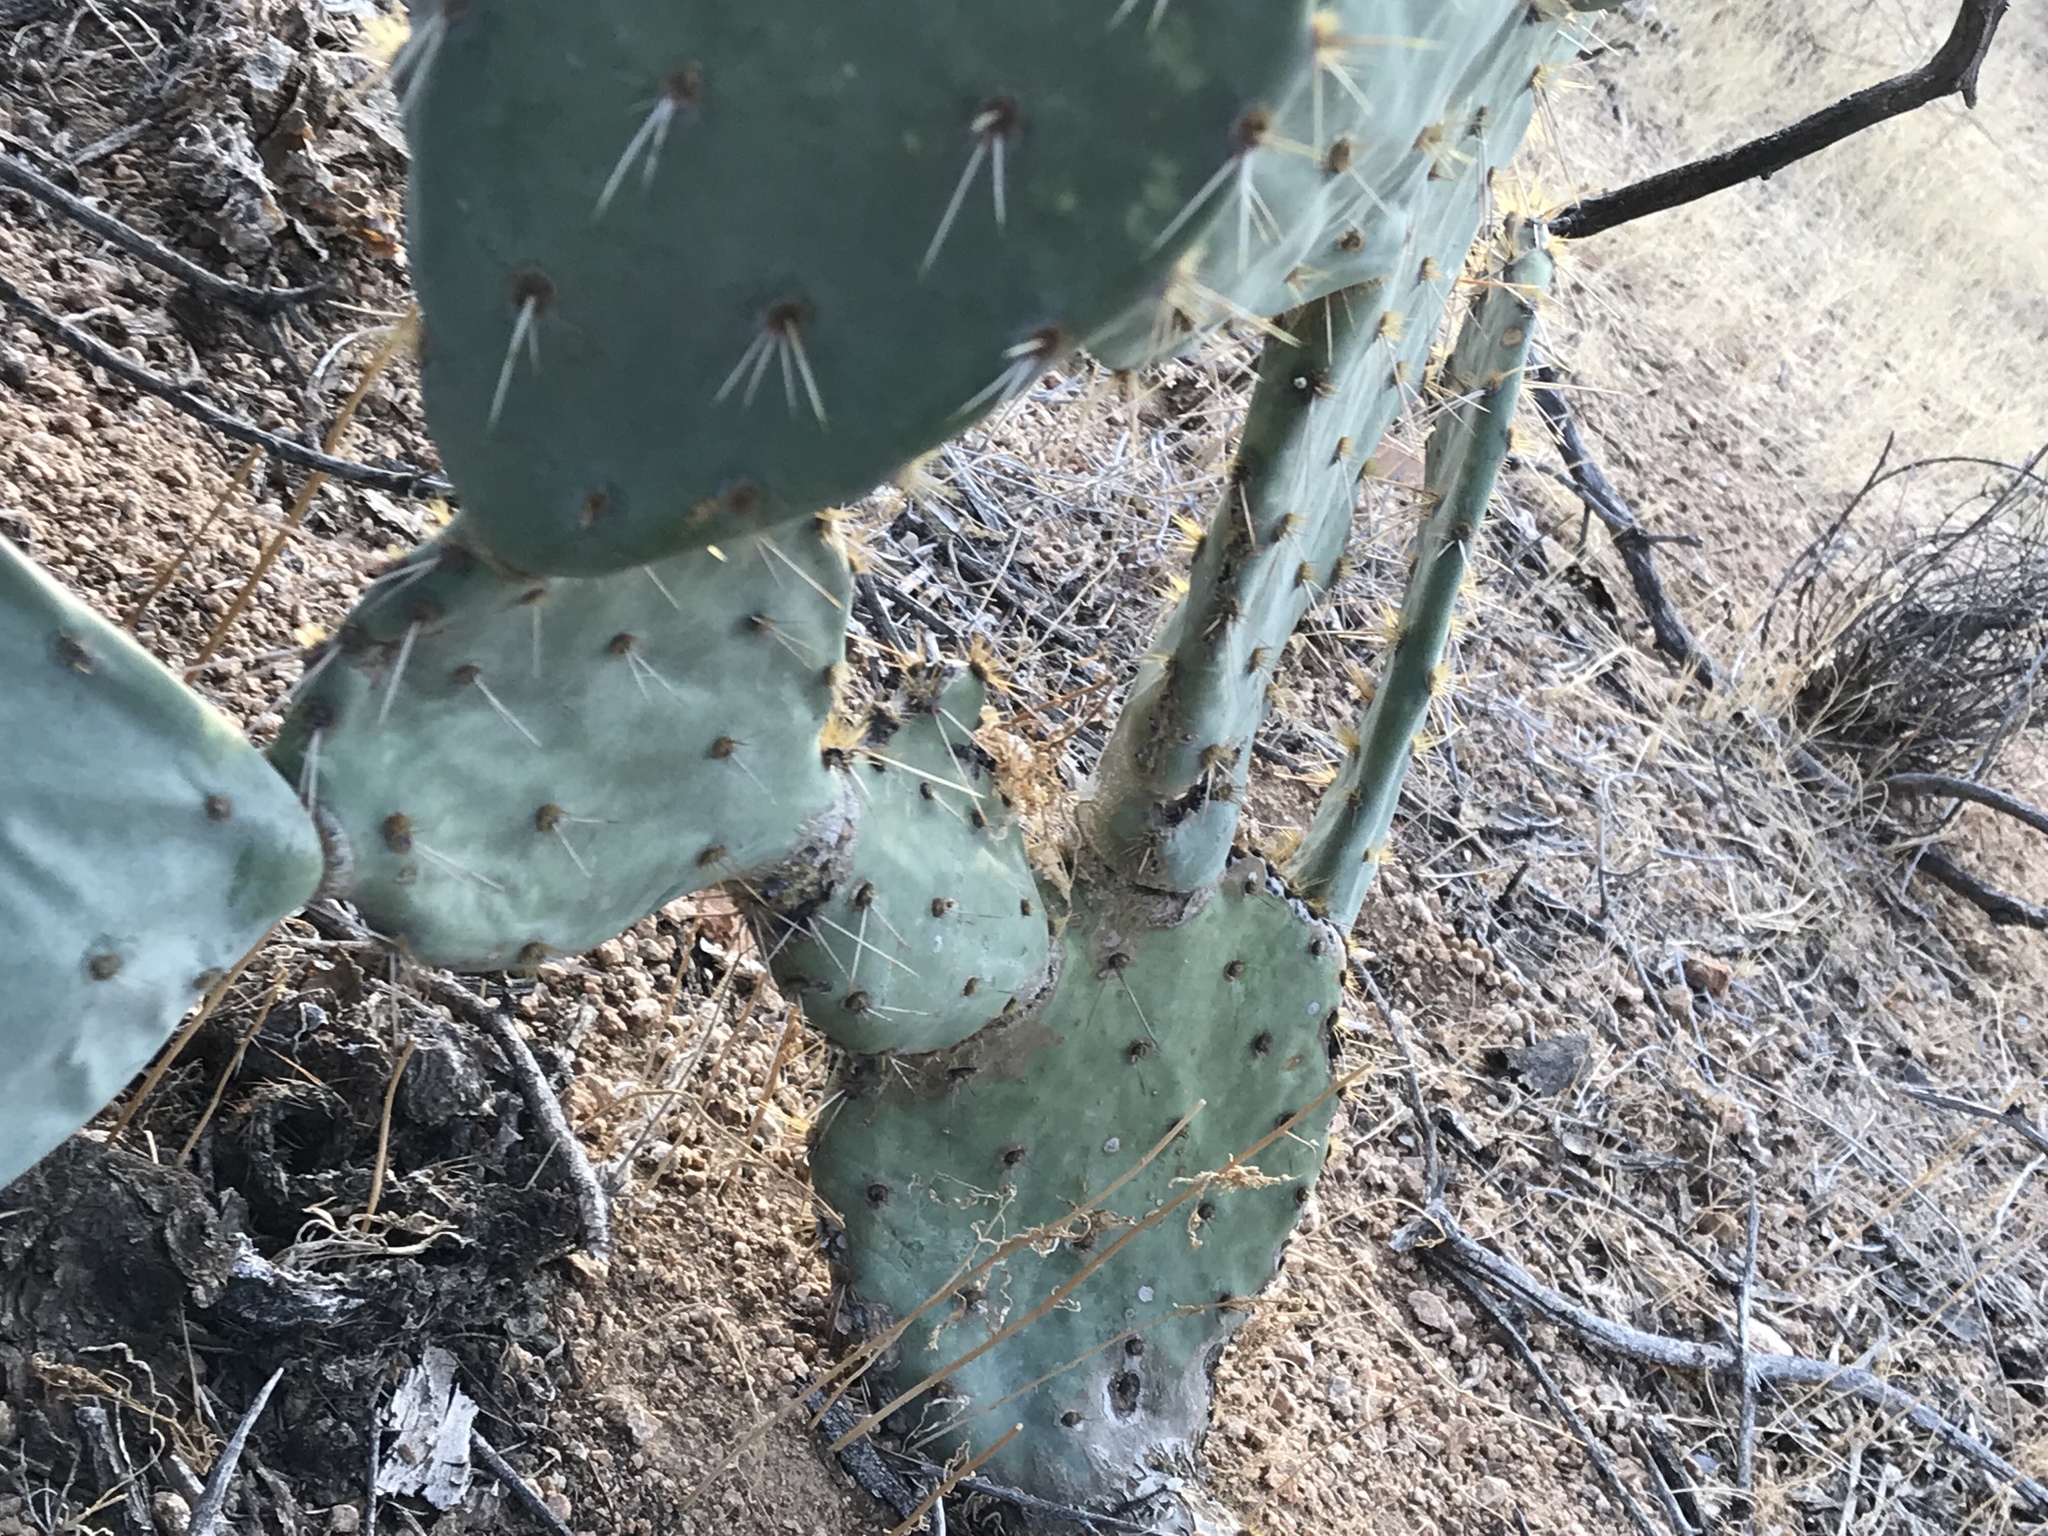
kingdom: Plantae
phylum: Tracheophyta
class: Magnoliopsida
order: Caryophyllales
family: Cactaceae
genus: Opuntia
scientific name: Opuntia chlorotica
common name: Dollar-joint prickly-pear
